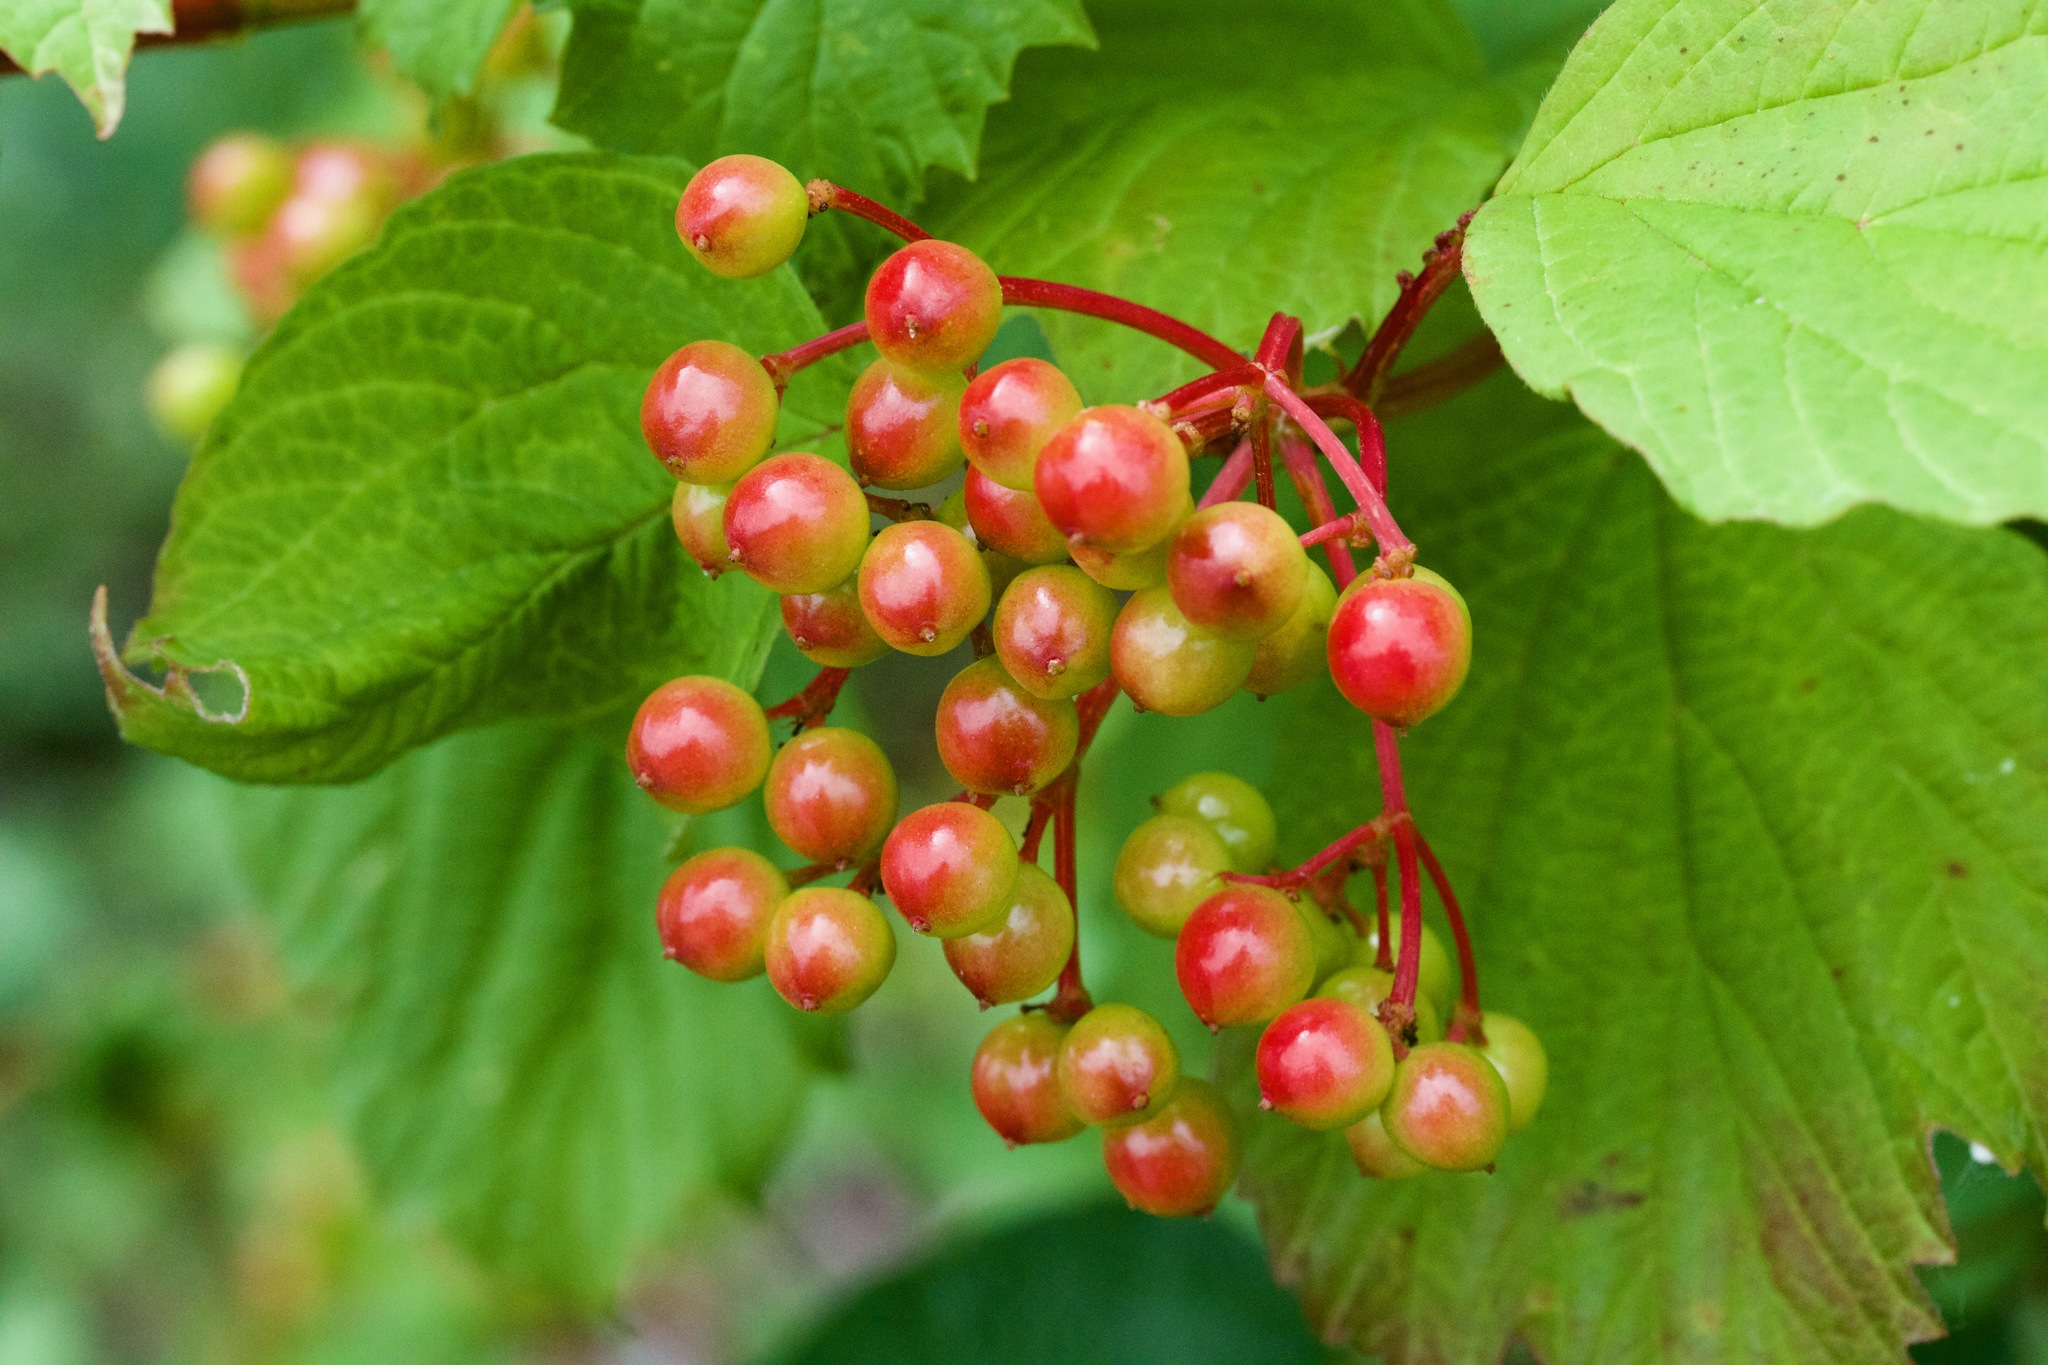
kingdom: Plantae
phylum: Tracheophyta
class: Magnoliopsida
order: Dipsacales
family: Viburnaceae
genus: Viburnum
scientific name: Viburnum opulus
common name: Guelder-rose
